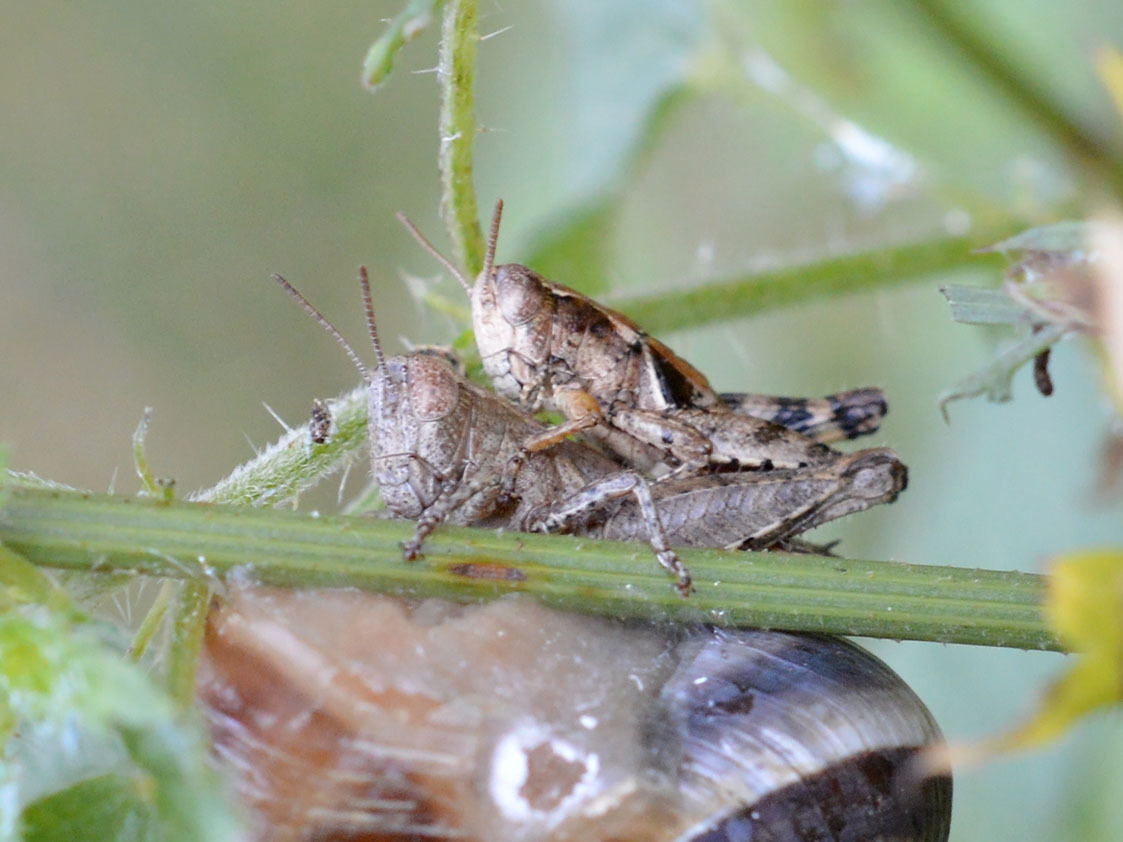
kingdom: Animalia
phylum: Arthropoda
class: Insecta
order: Orthoptera
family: Acrididae
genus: Pezotettix
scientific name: Pezotettix giornae
